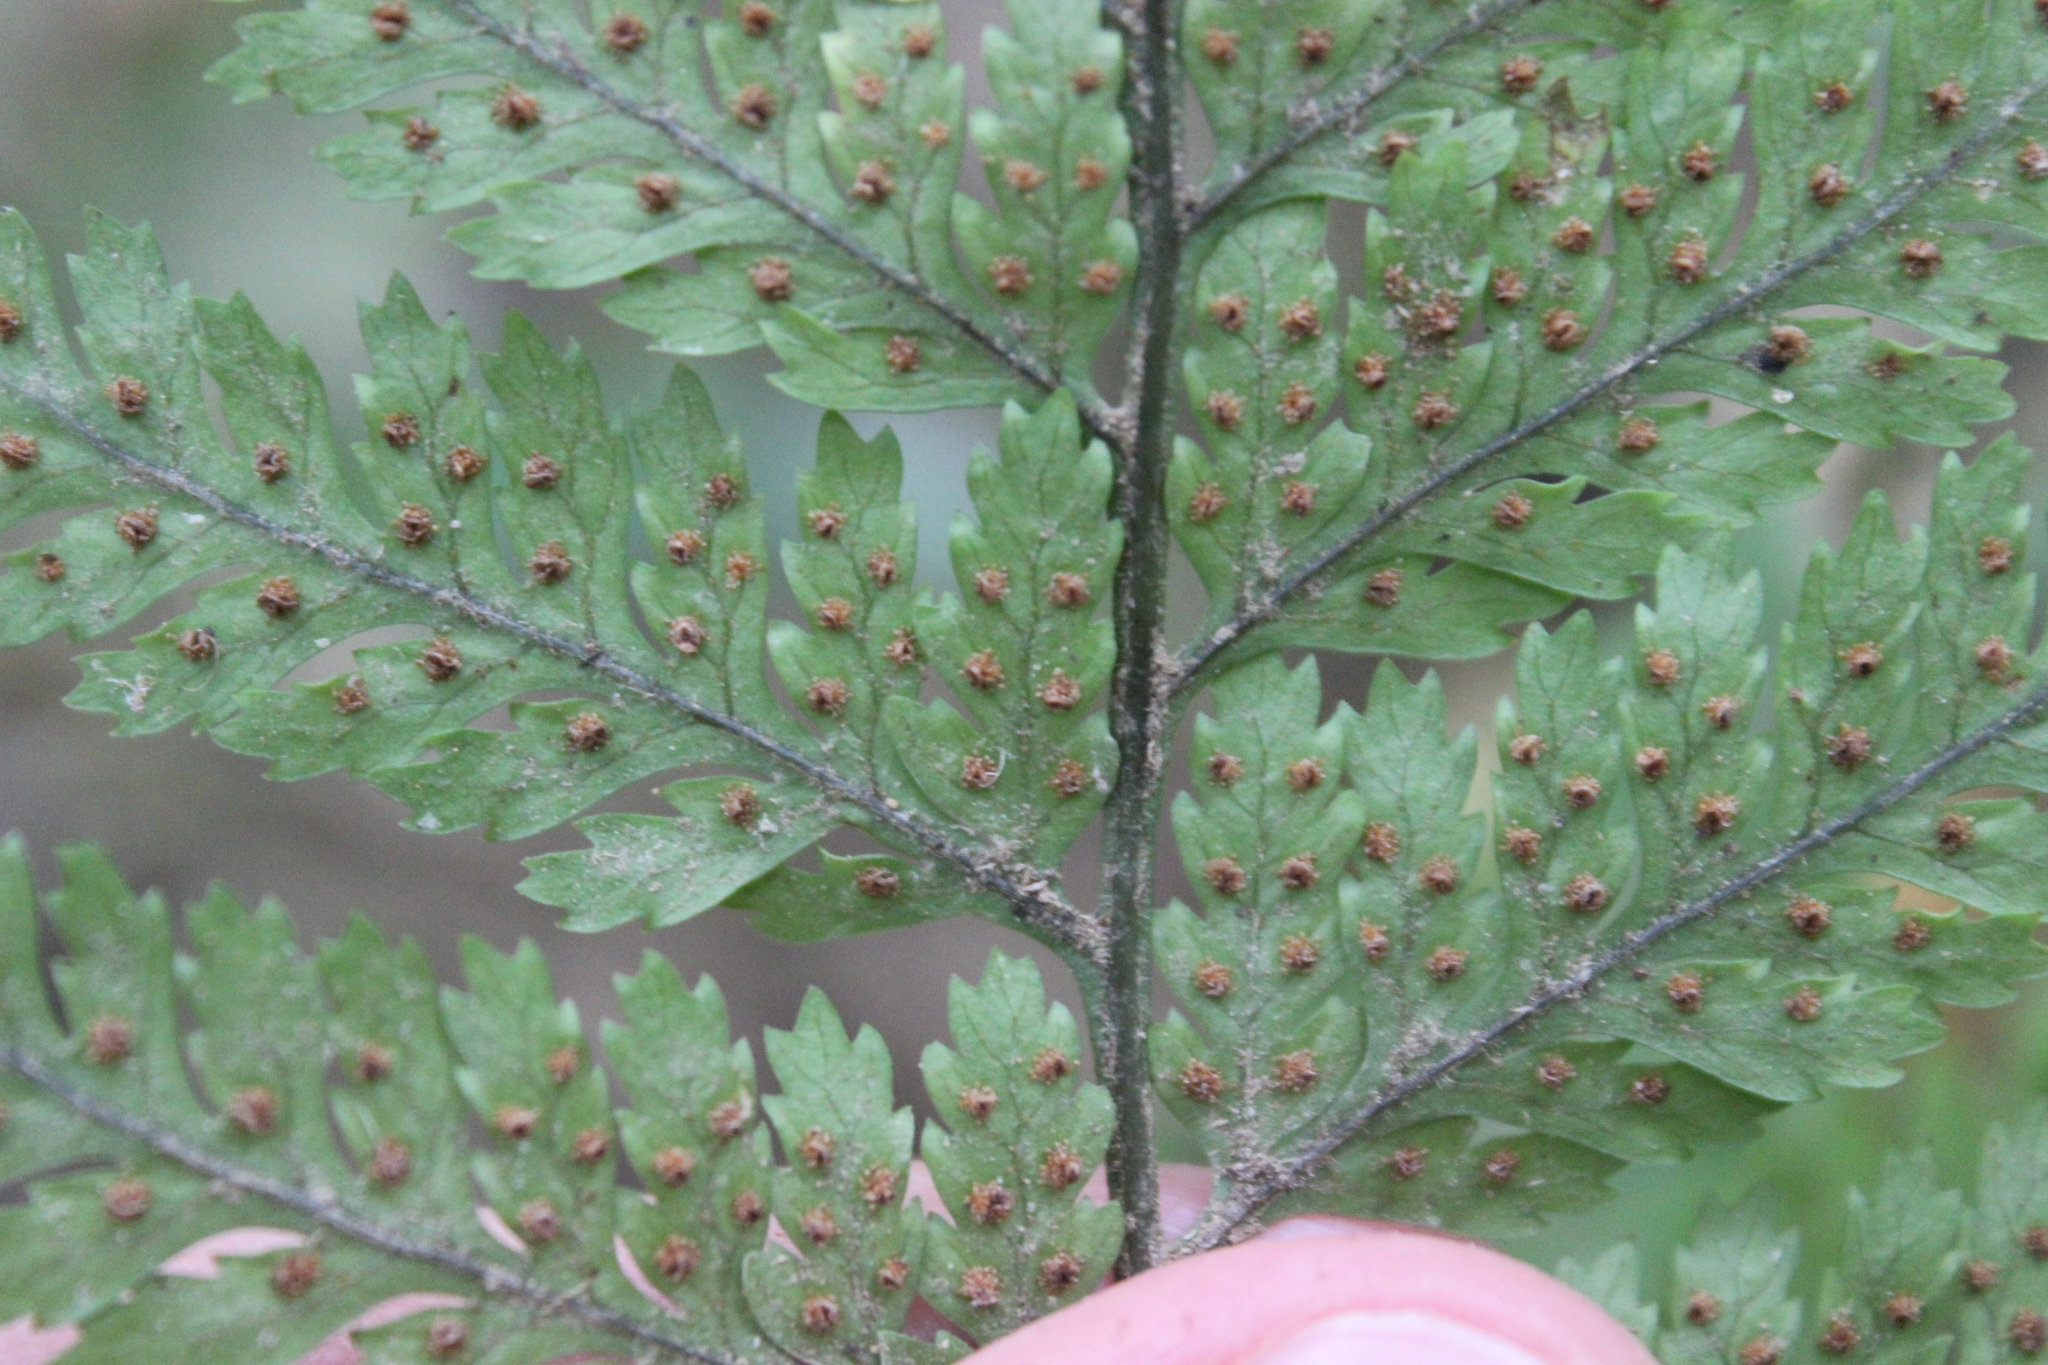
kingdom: Plantae
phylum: Tracheophyta
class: Polypodiopsida
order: Polypodiales
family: Dryopteridaceae
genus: Parapolystichum
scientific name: Parapolystichum glabellum
